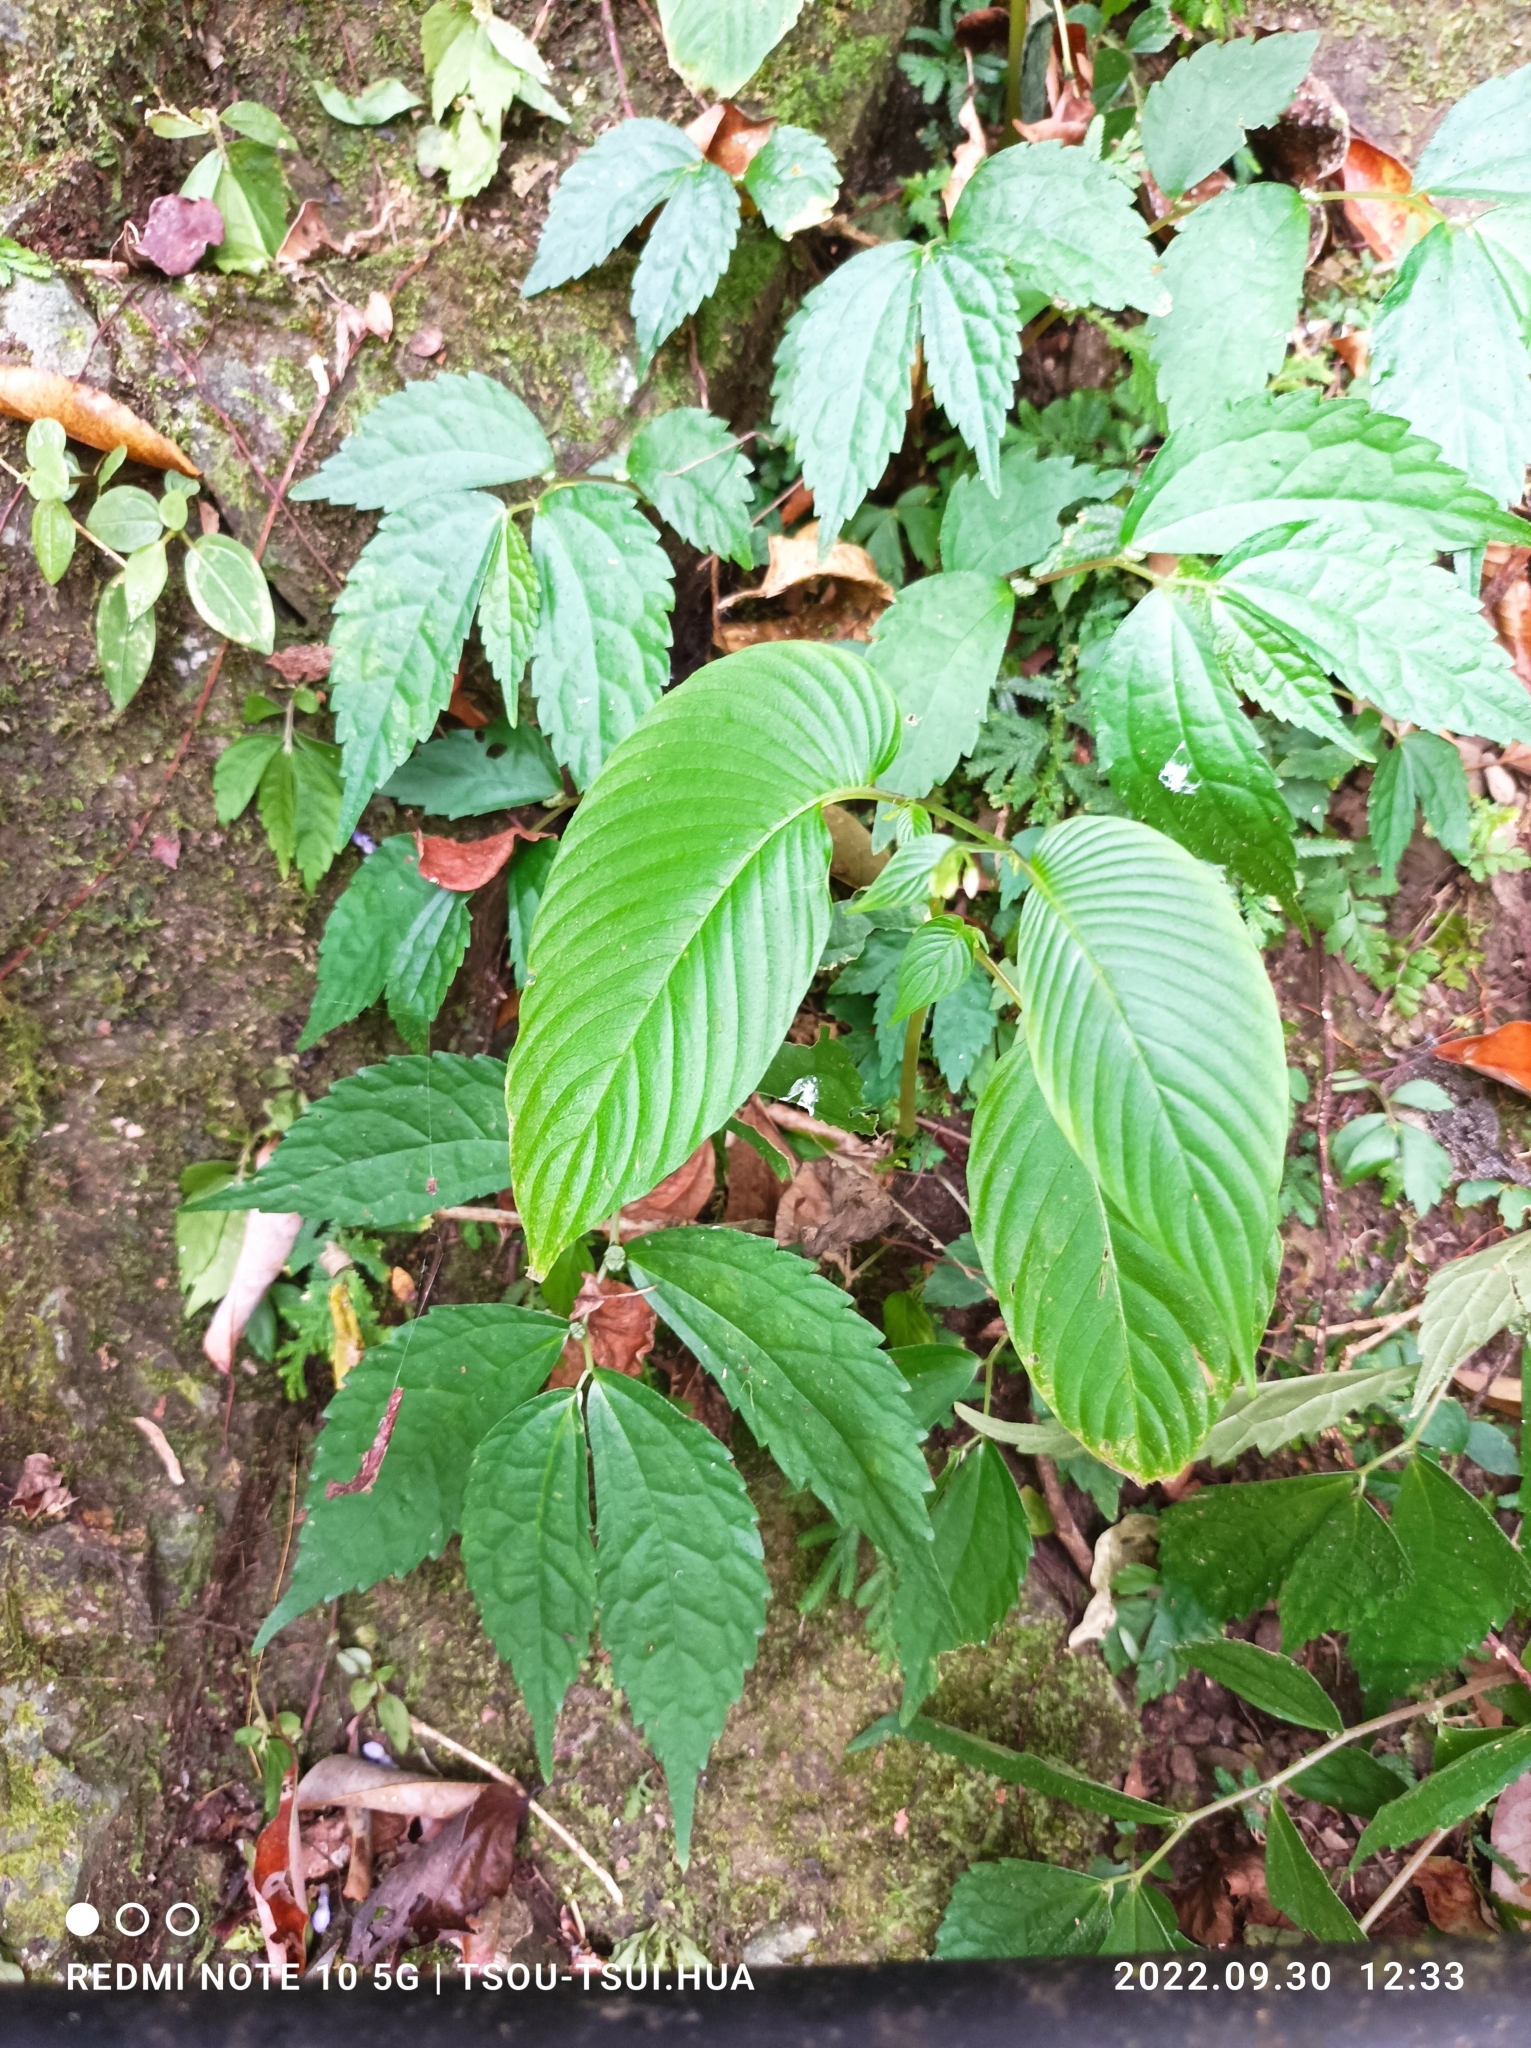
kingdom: Plantae
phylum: Tracheophyta
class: Magnoliopsida
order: Lamiales
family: Gesneriaceae
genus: Rhynchoglossum
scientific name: Rhynchoglossum obliquum
